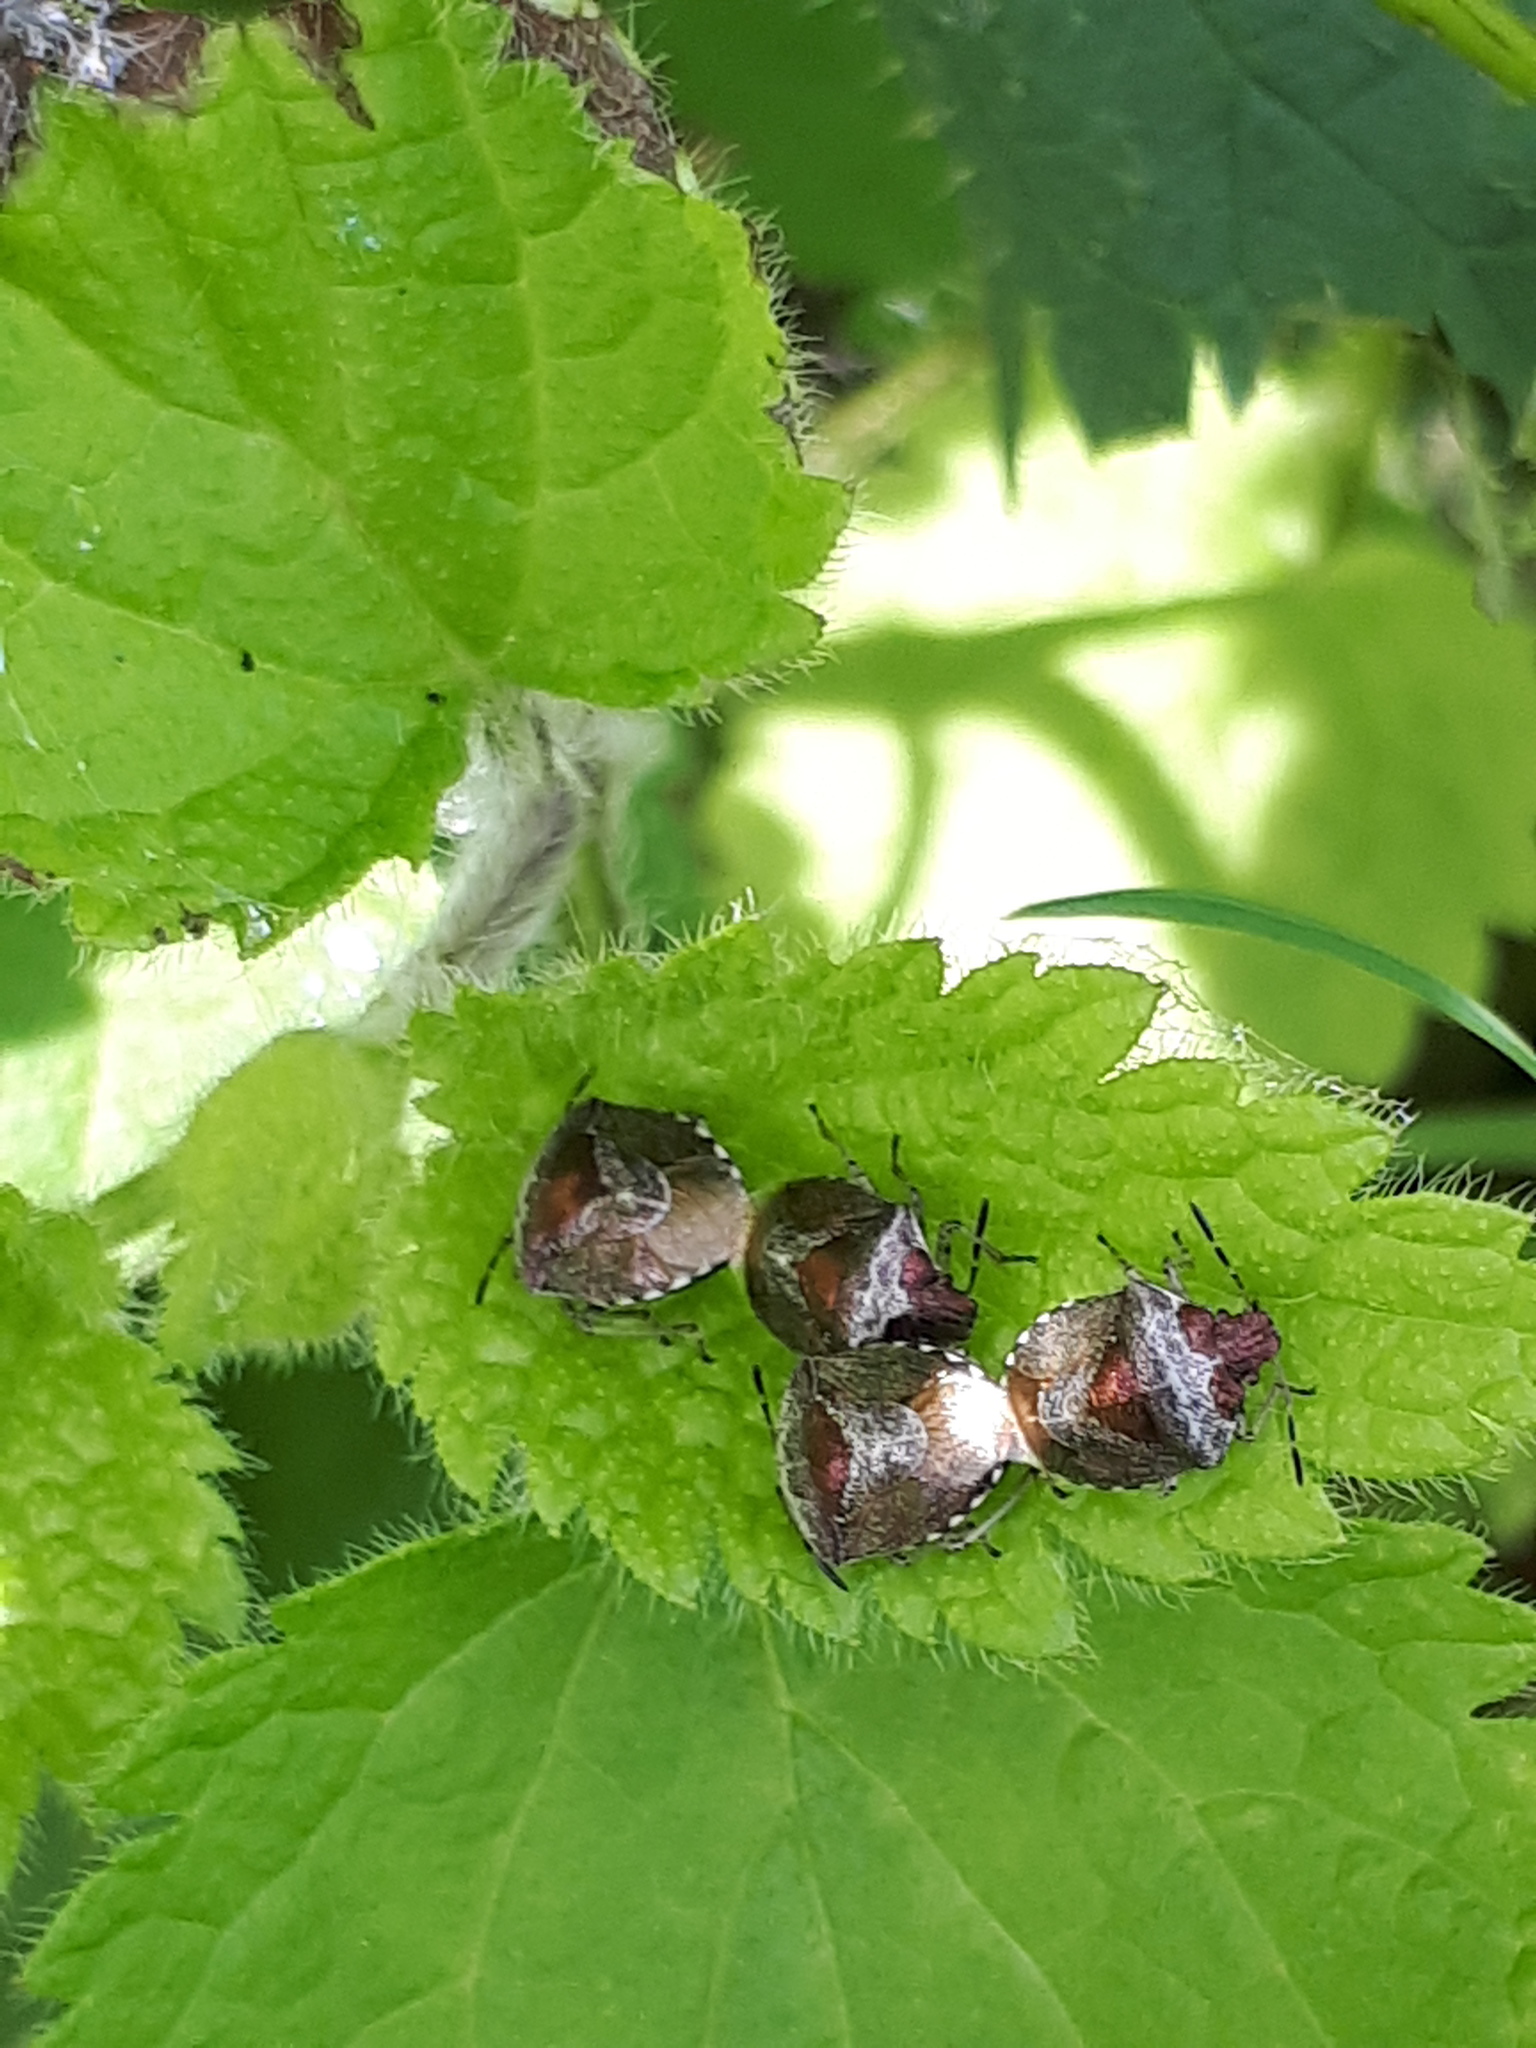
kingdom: Animalia
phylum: Arthropoda
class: Insecta
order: Hemiptera
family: Pentatomidae
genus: Eysarcoris
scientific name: Eysarcoris venustissimus
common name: Woundwort shieldbug
